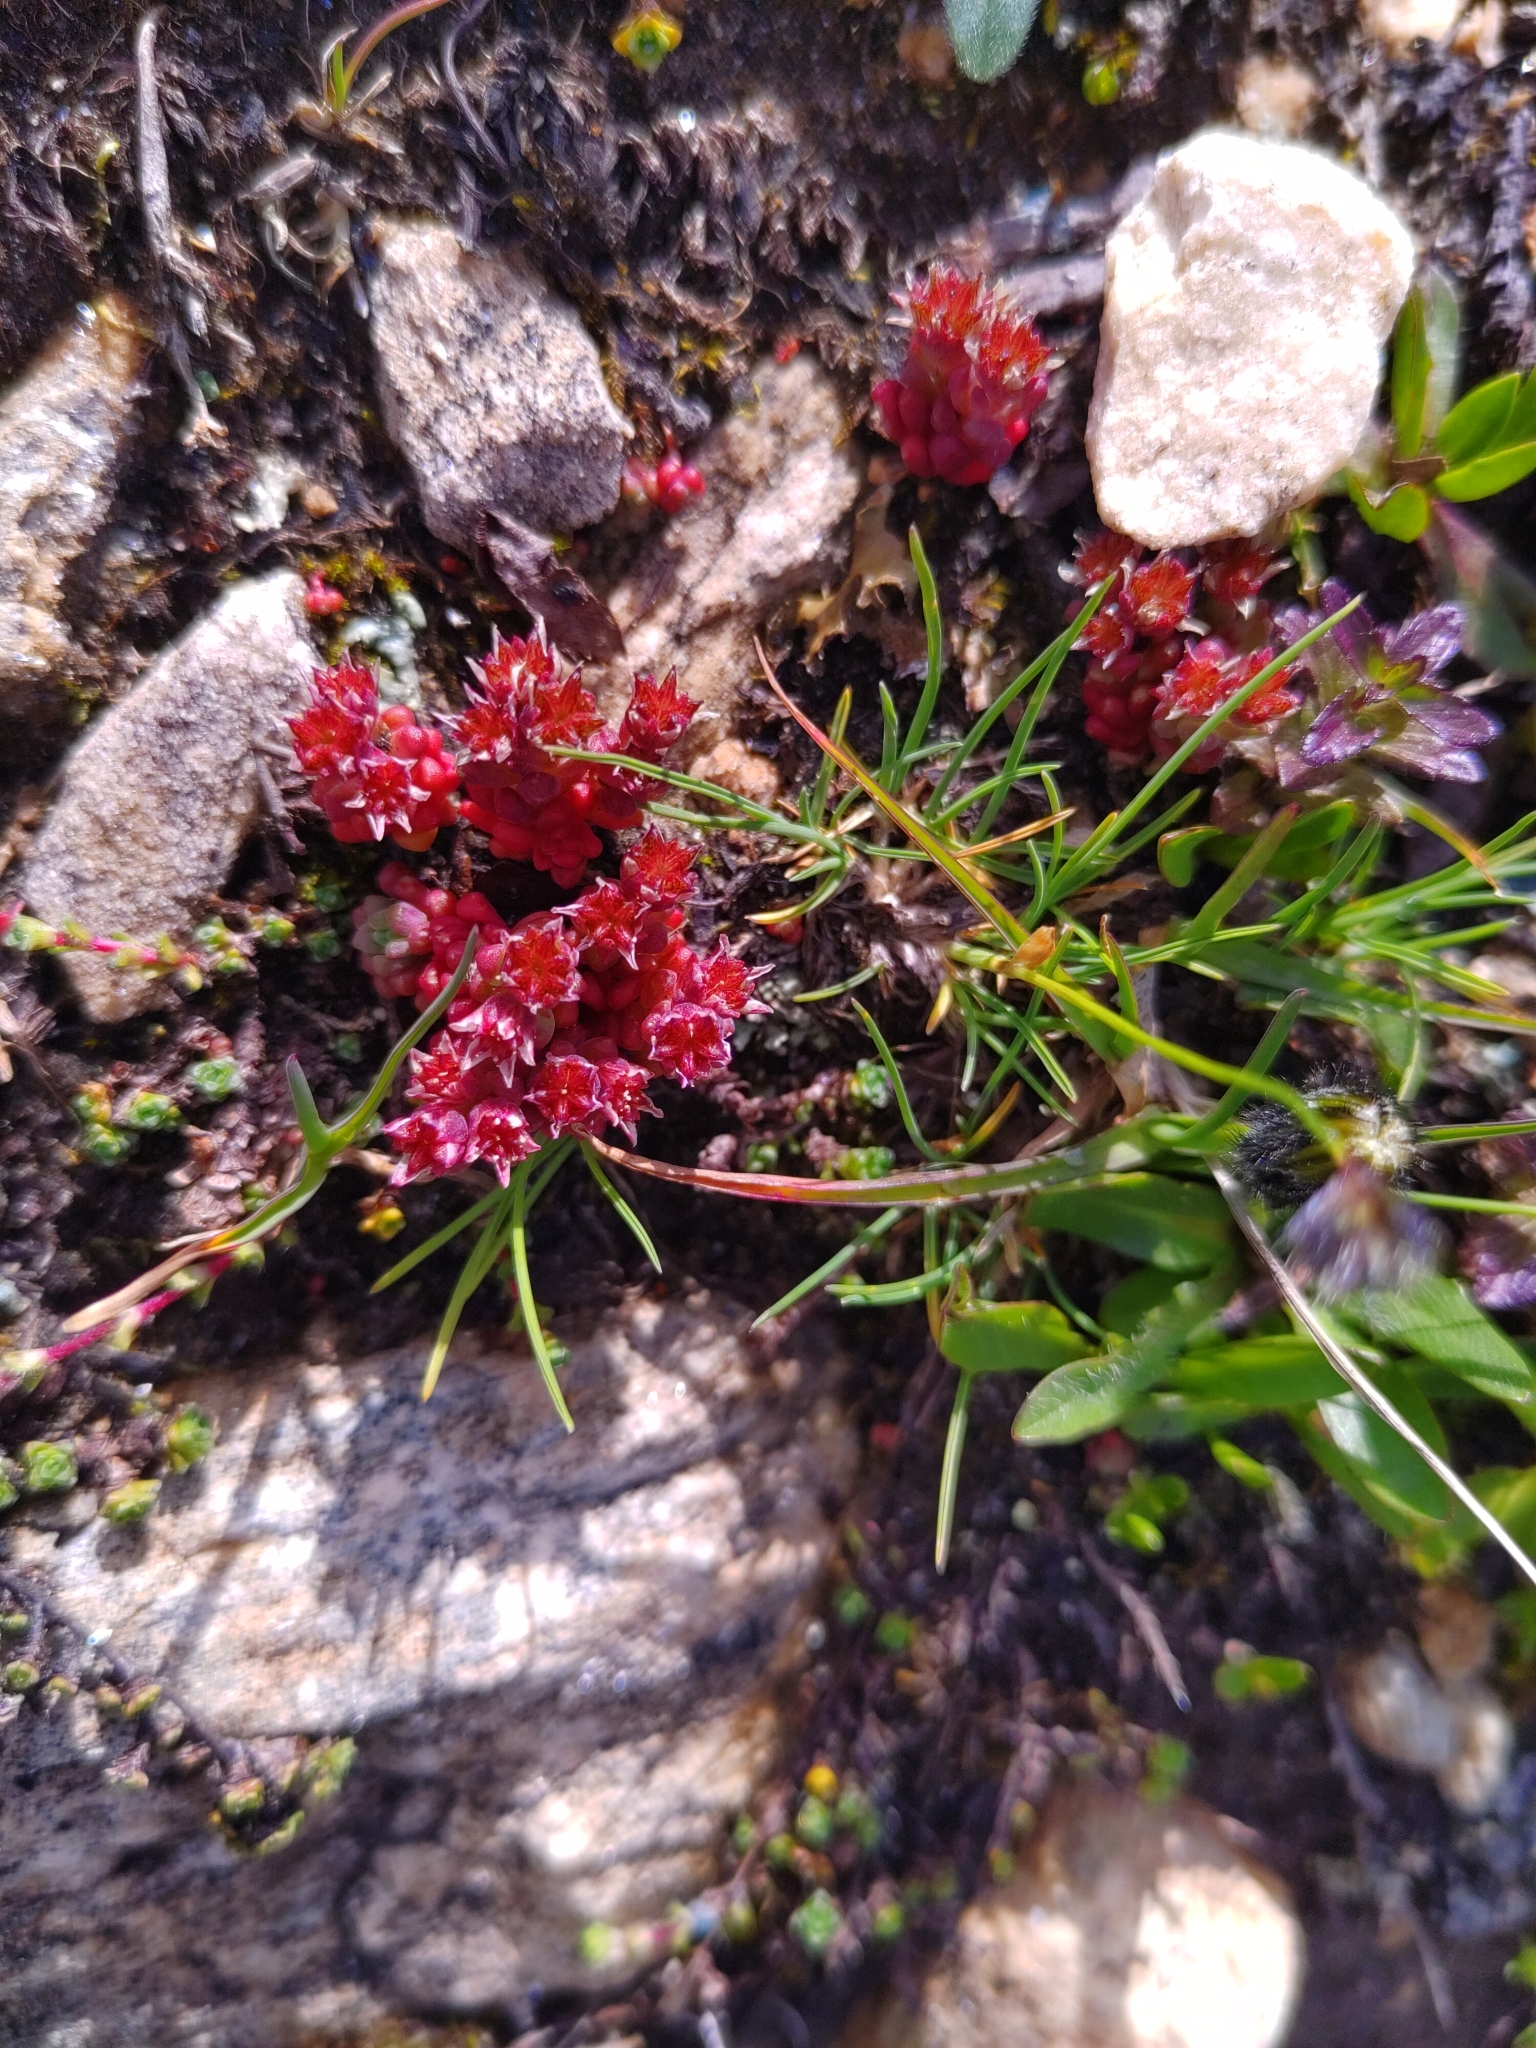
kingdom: Plantae
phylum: Tracheophyta
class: Magnoliopsida
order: Saxifragales
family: Crassulaceae
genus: Sedum
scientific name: Sedum atratum
